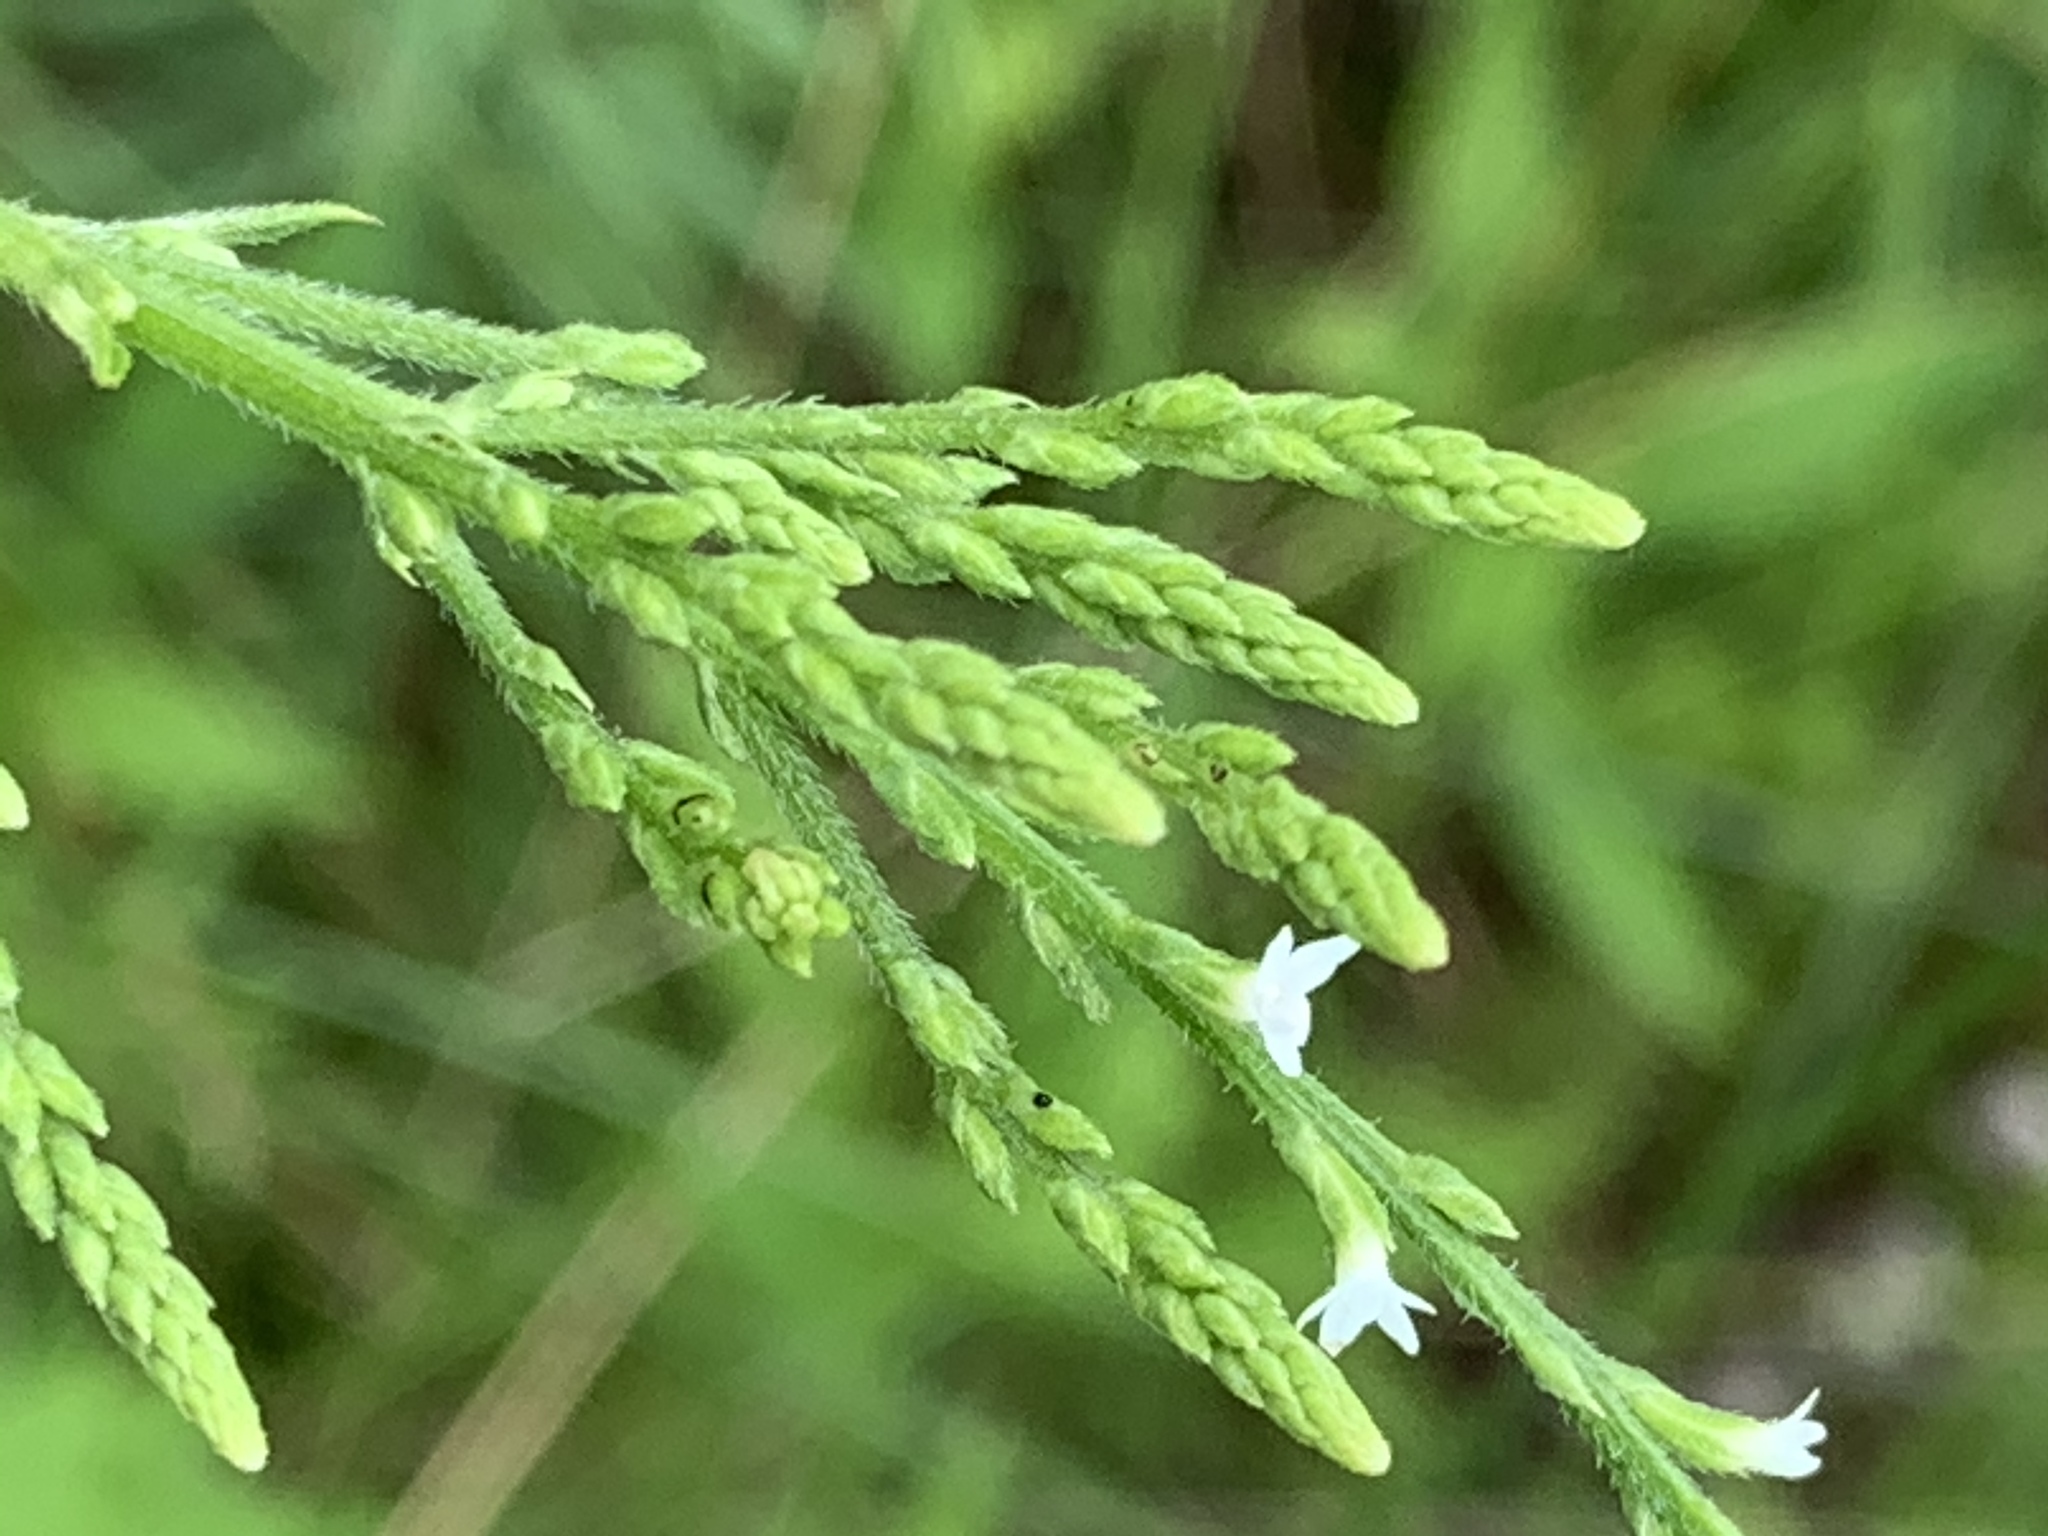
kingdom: Plantae
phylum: Tracheophyta
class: Magnoliopsida
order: Lamiales
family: Verbenaceae
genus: Verbena
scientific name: Verbena urticifolia
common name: Nettle-leaved vervain
